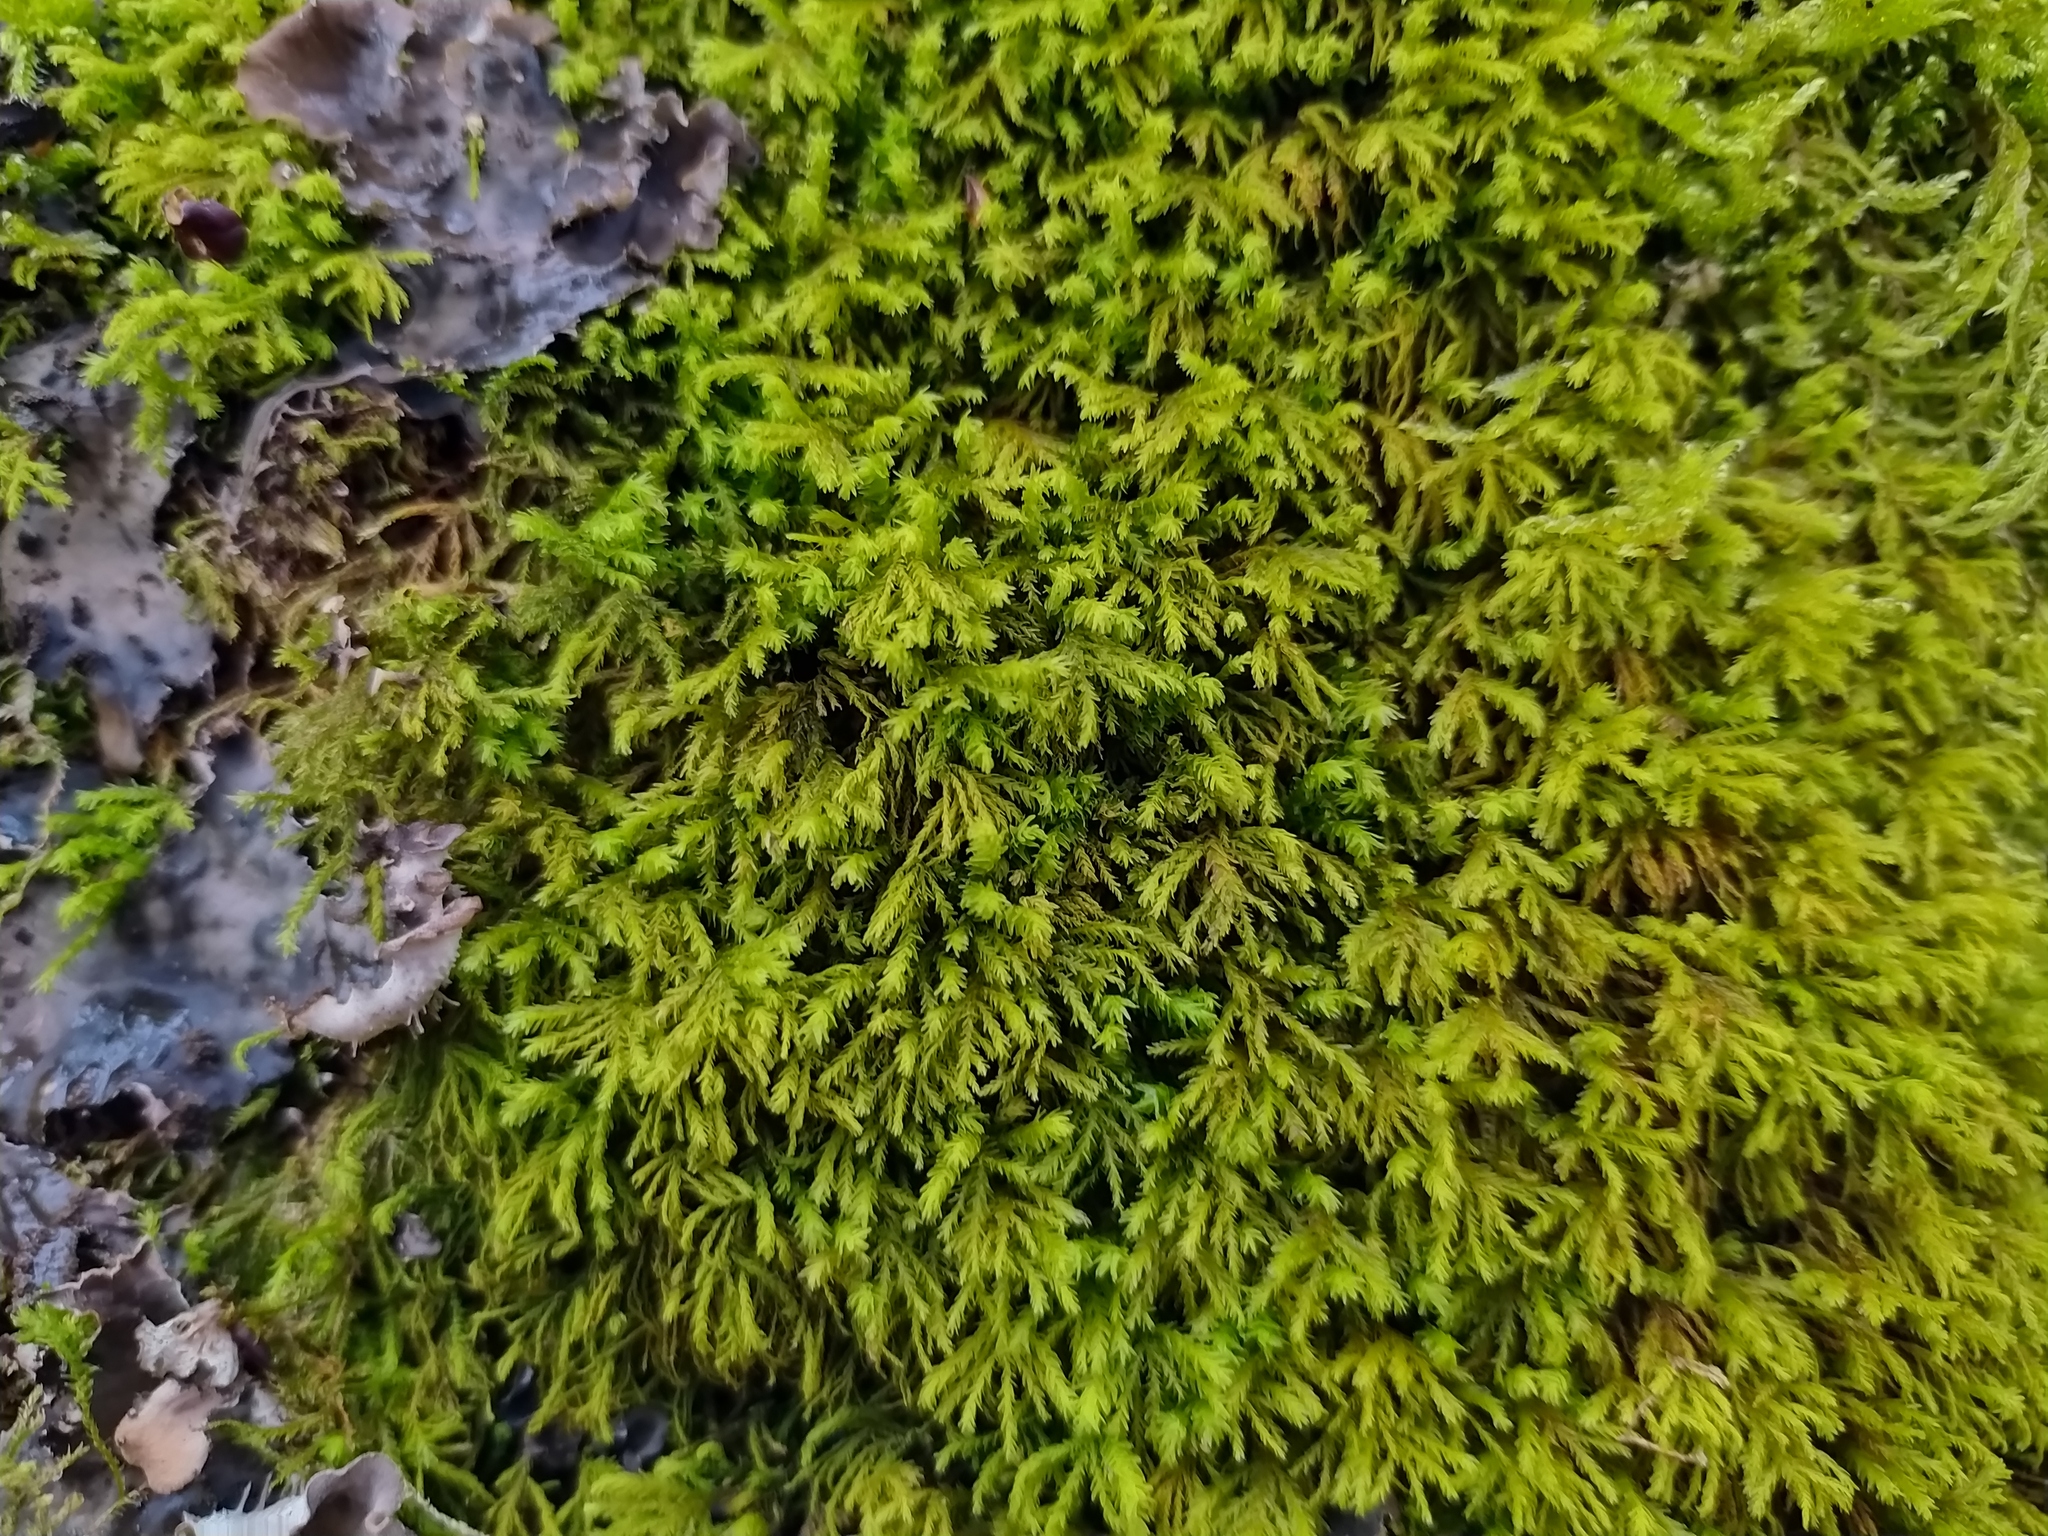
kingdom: Plantae
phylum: Bryophyta
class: Bryopsida
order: Hypnales
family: Neckeraceae
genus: Pseudanomodon
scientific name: Pseudanomodon attenuatus
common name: Tree-skirt moss
